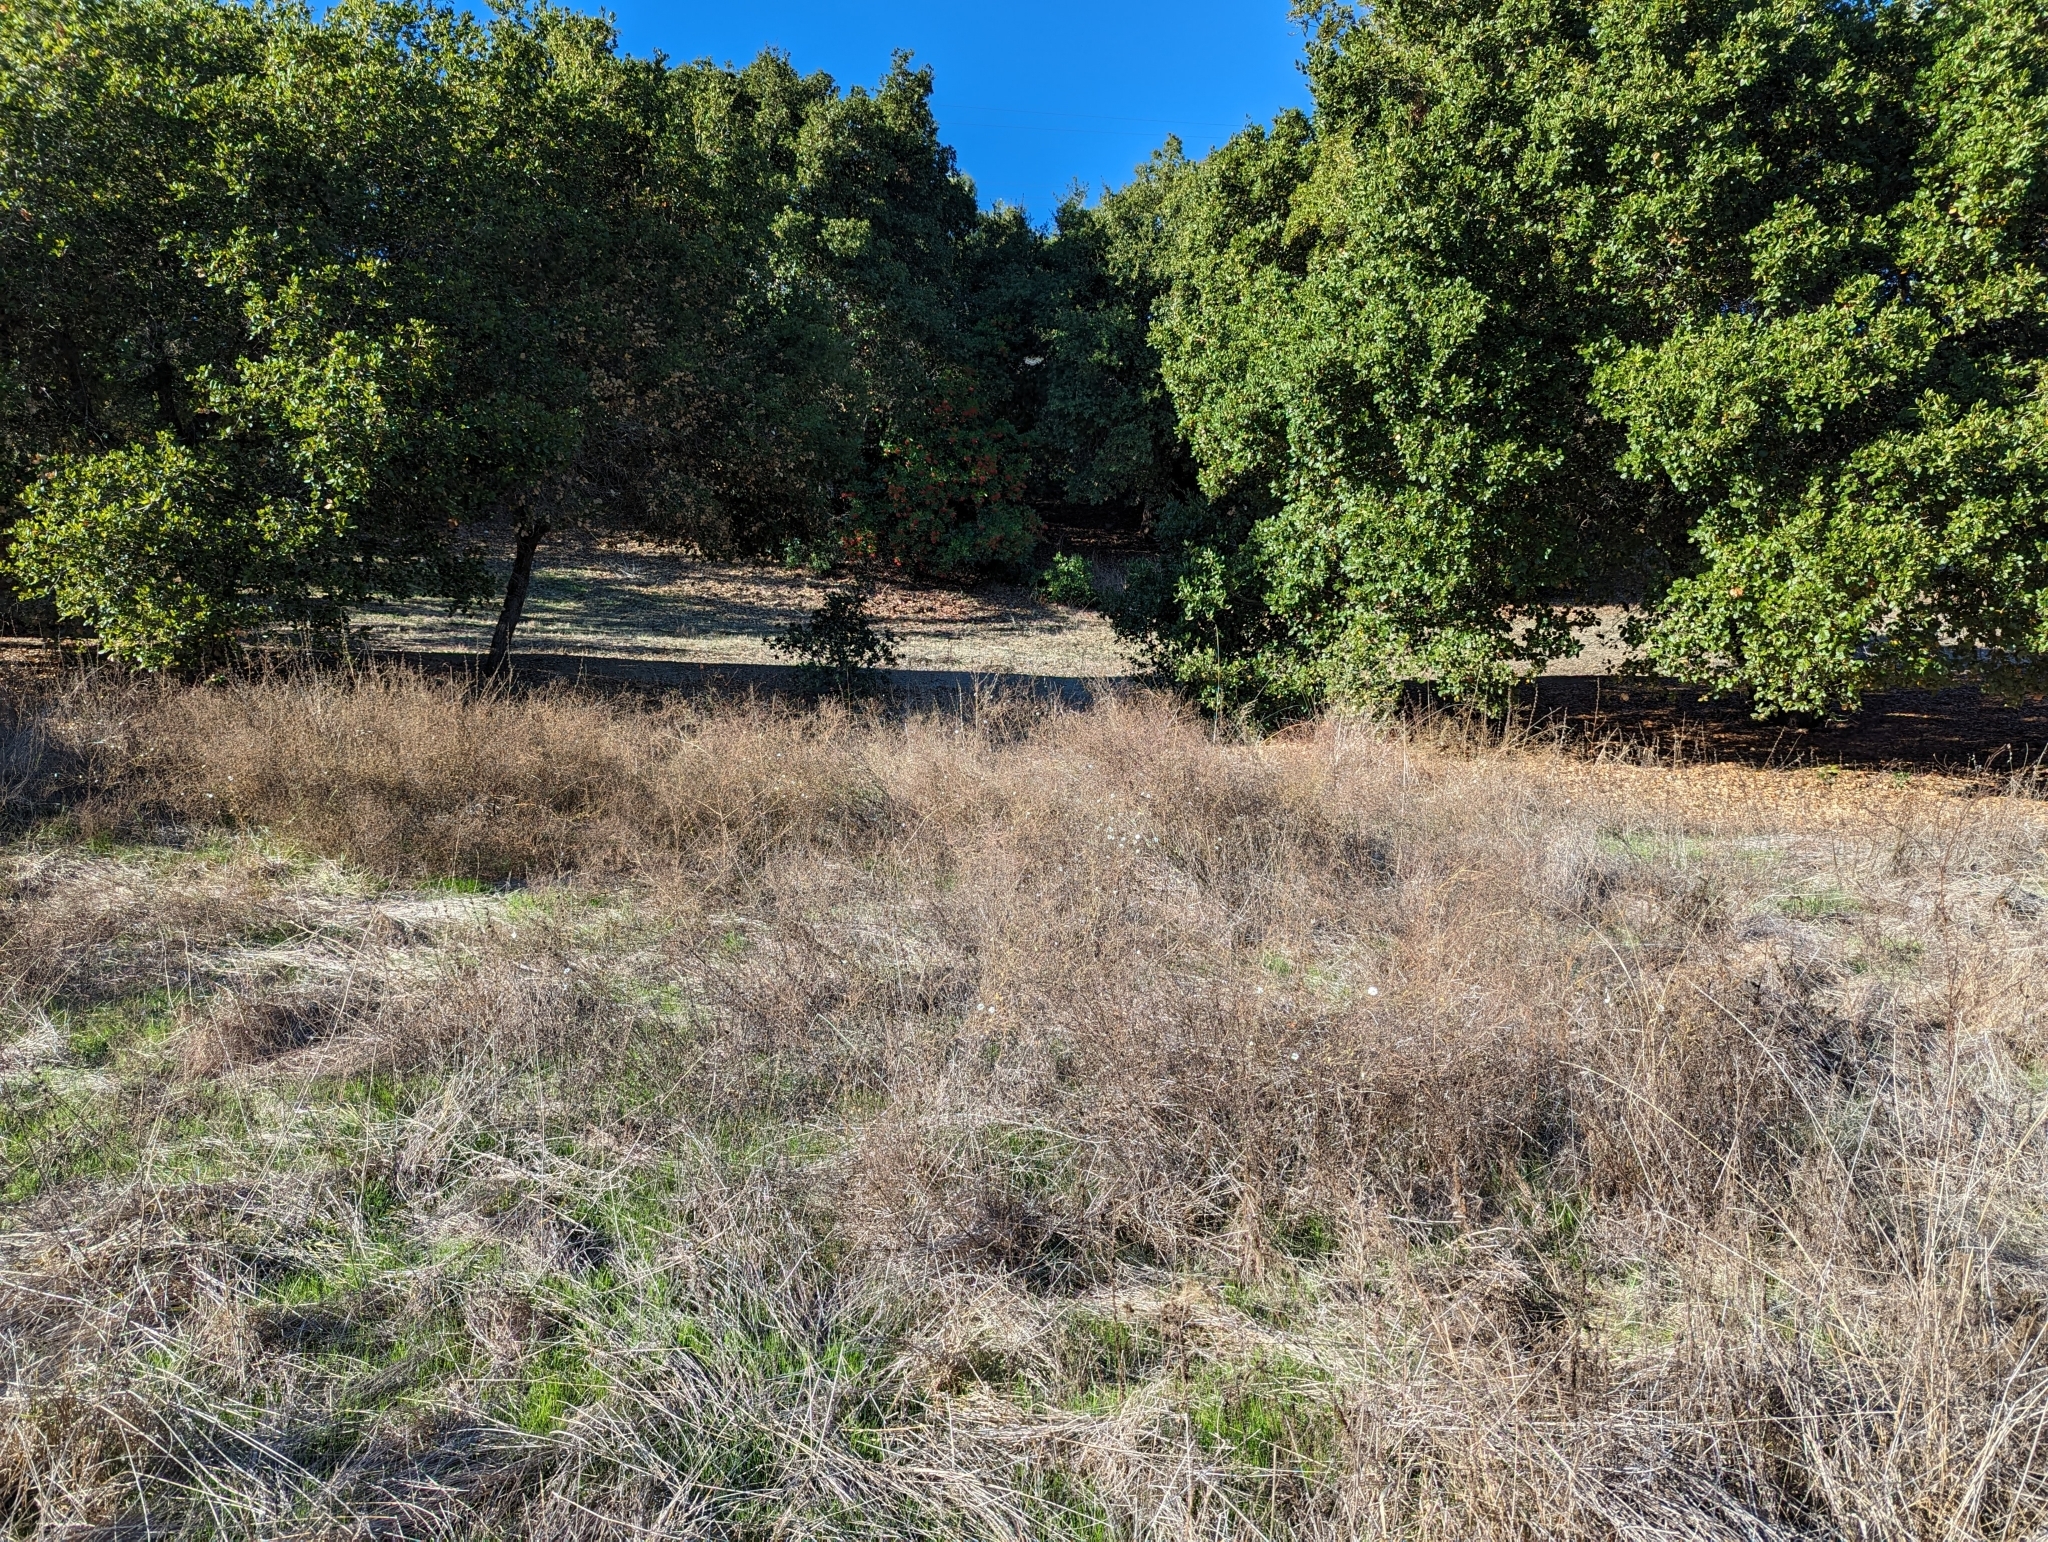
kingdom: Plantae
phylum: Tracheophyta
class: Magnoliopsida
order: Asterales
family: Asteraceae
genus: Hemizonia
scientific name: Hemizonia congesta
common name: Hayfield tarweed
